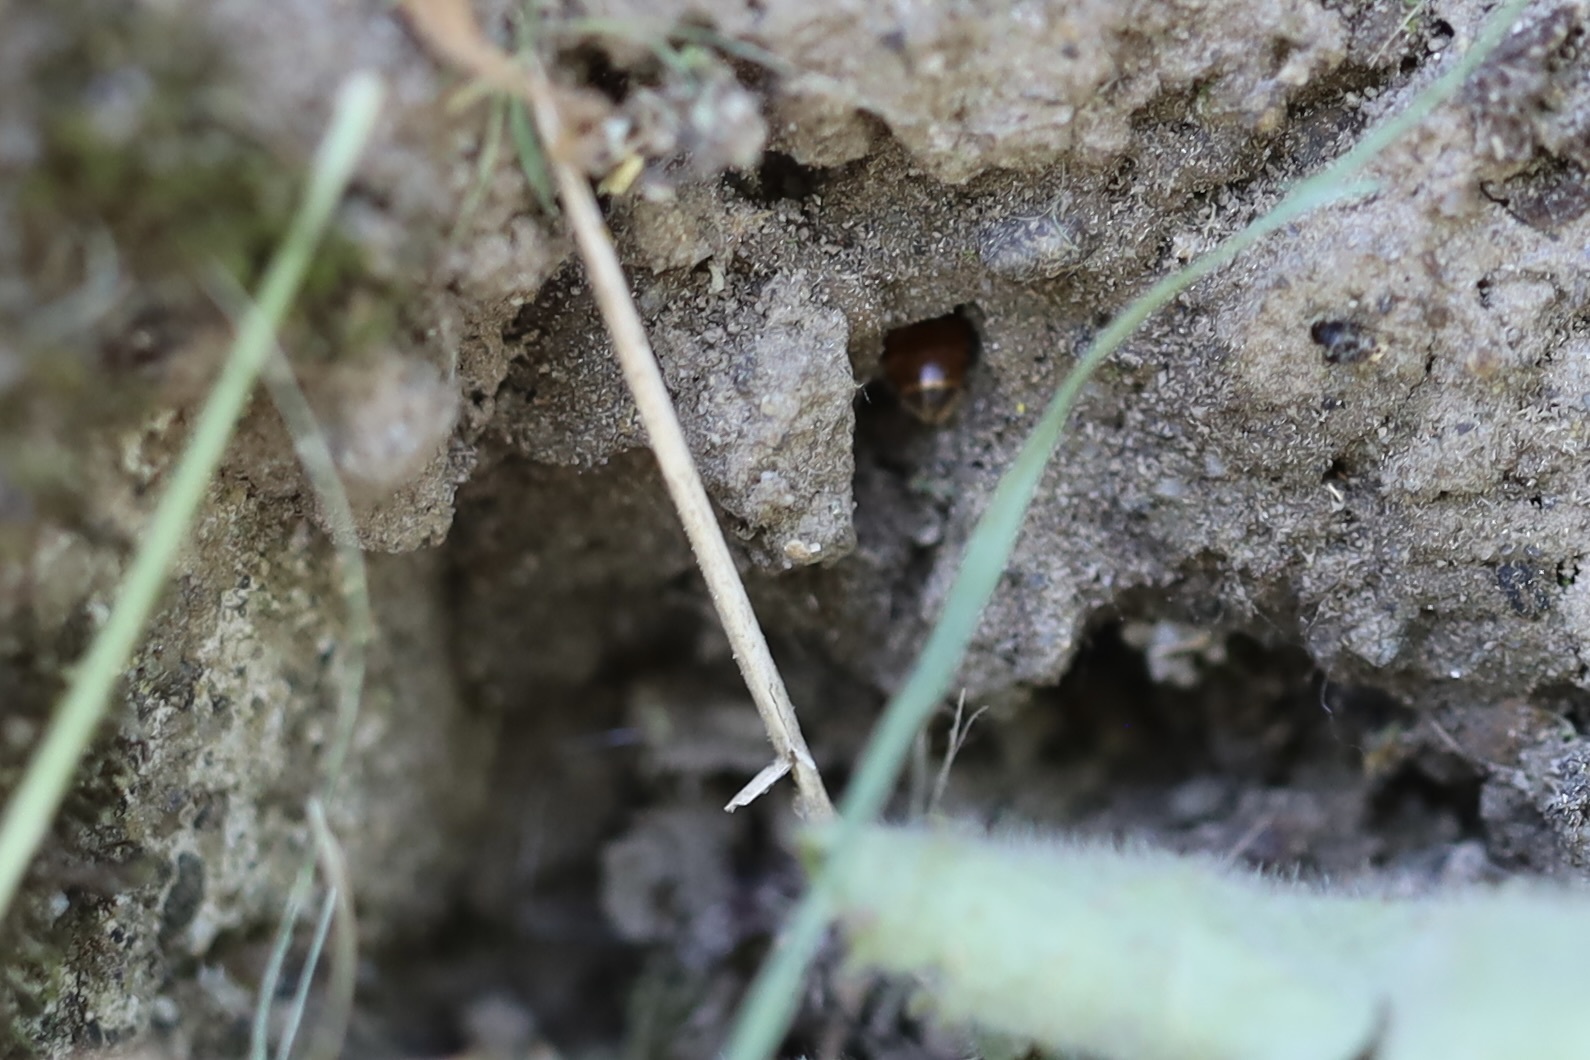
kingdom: Animalia
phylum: Arthropoda
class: Insecta
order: Hymenoptera
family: Halictidae
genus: Lasioglossum
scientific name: Lasioglossum ovaliceps
